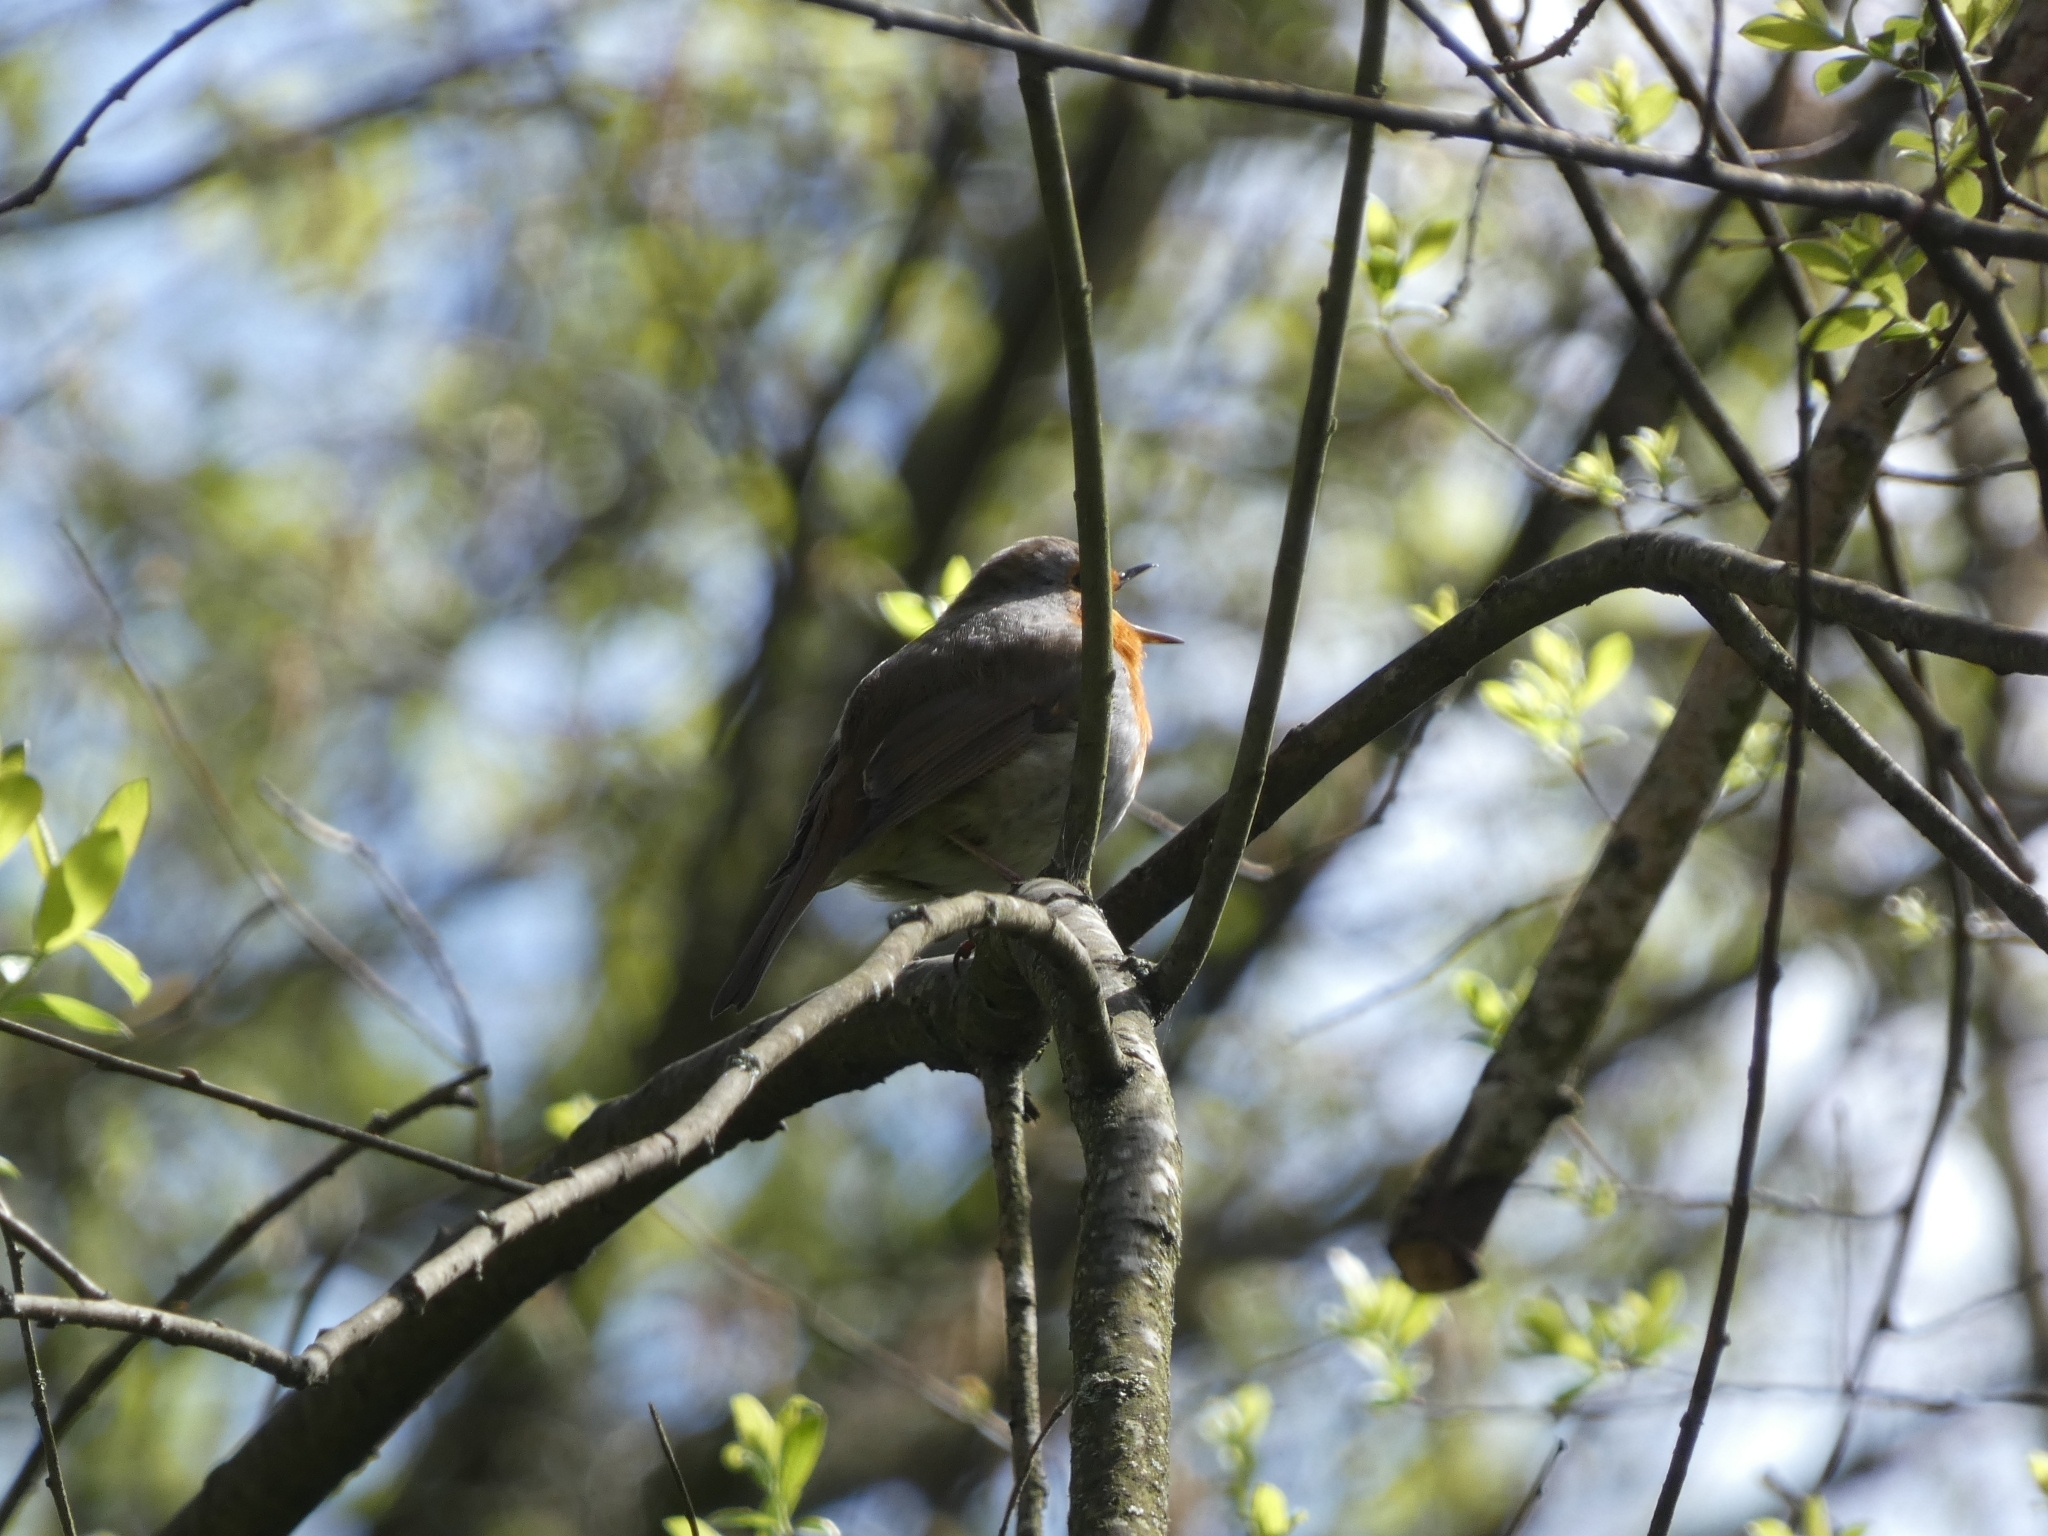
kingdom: Animalia
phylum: Chordata
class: Aves
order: Passeriformes
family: Muscicapidae
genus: Erithacus
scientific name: Erithacus rubecula
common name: European robin
